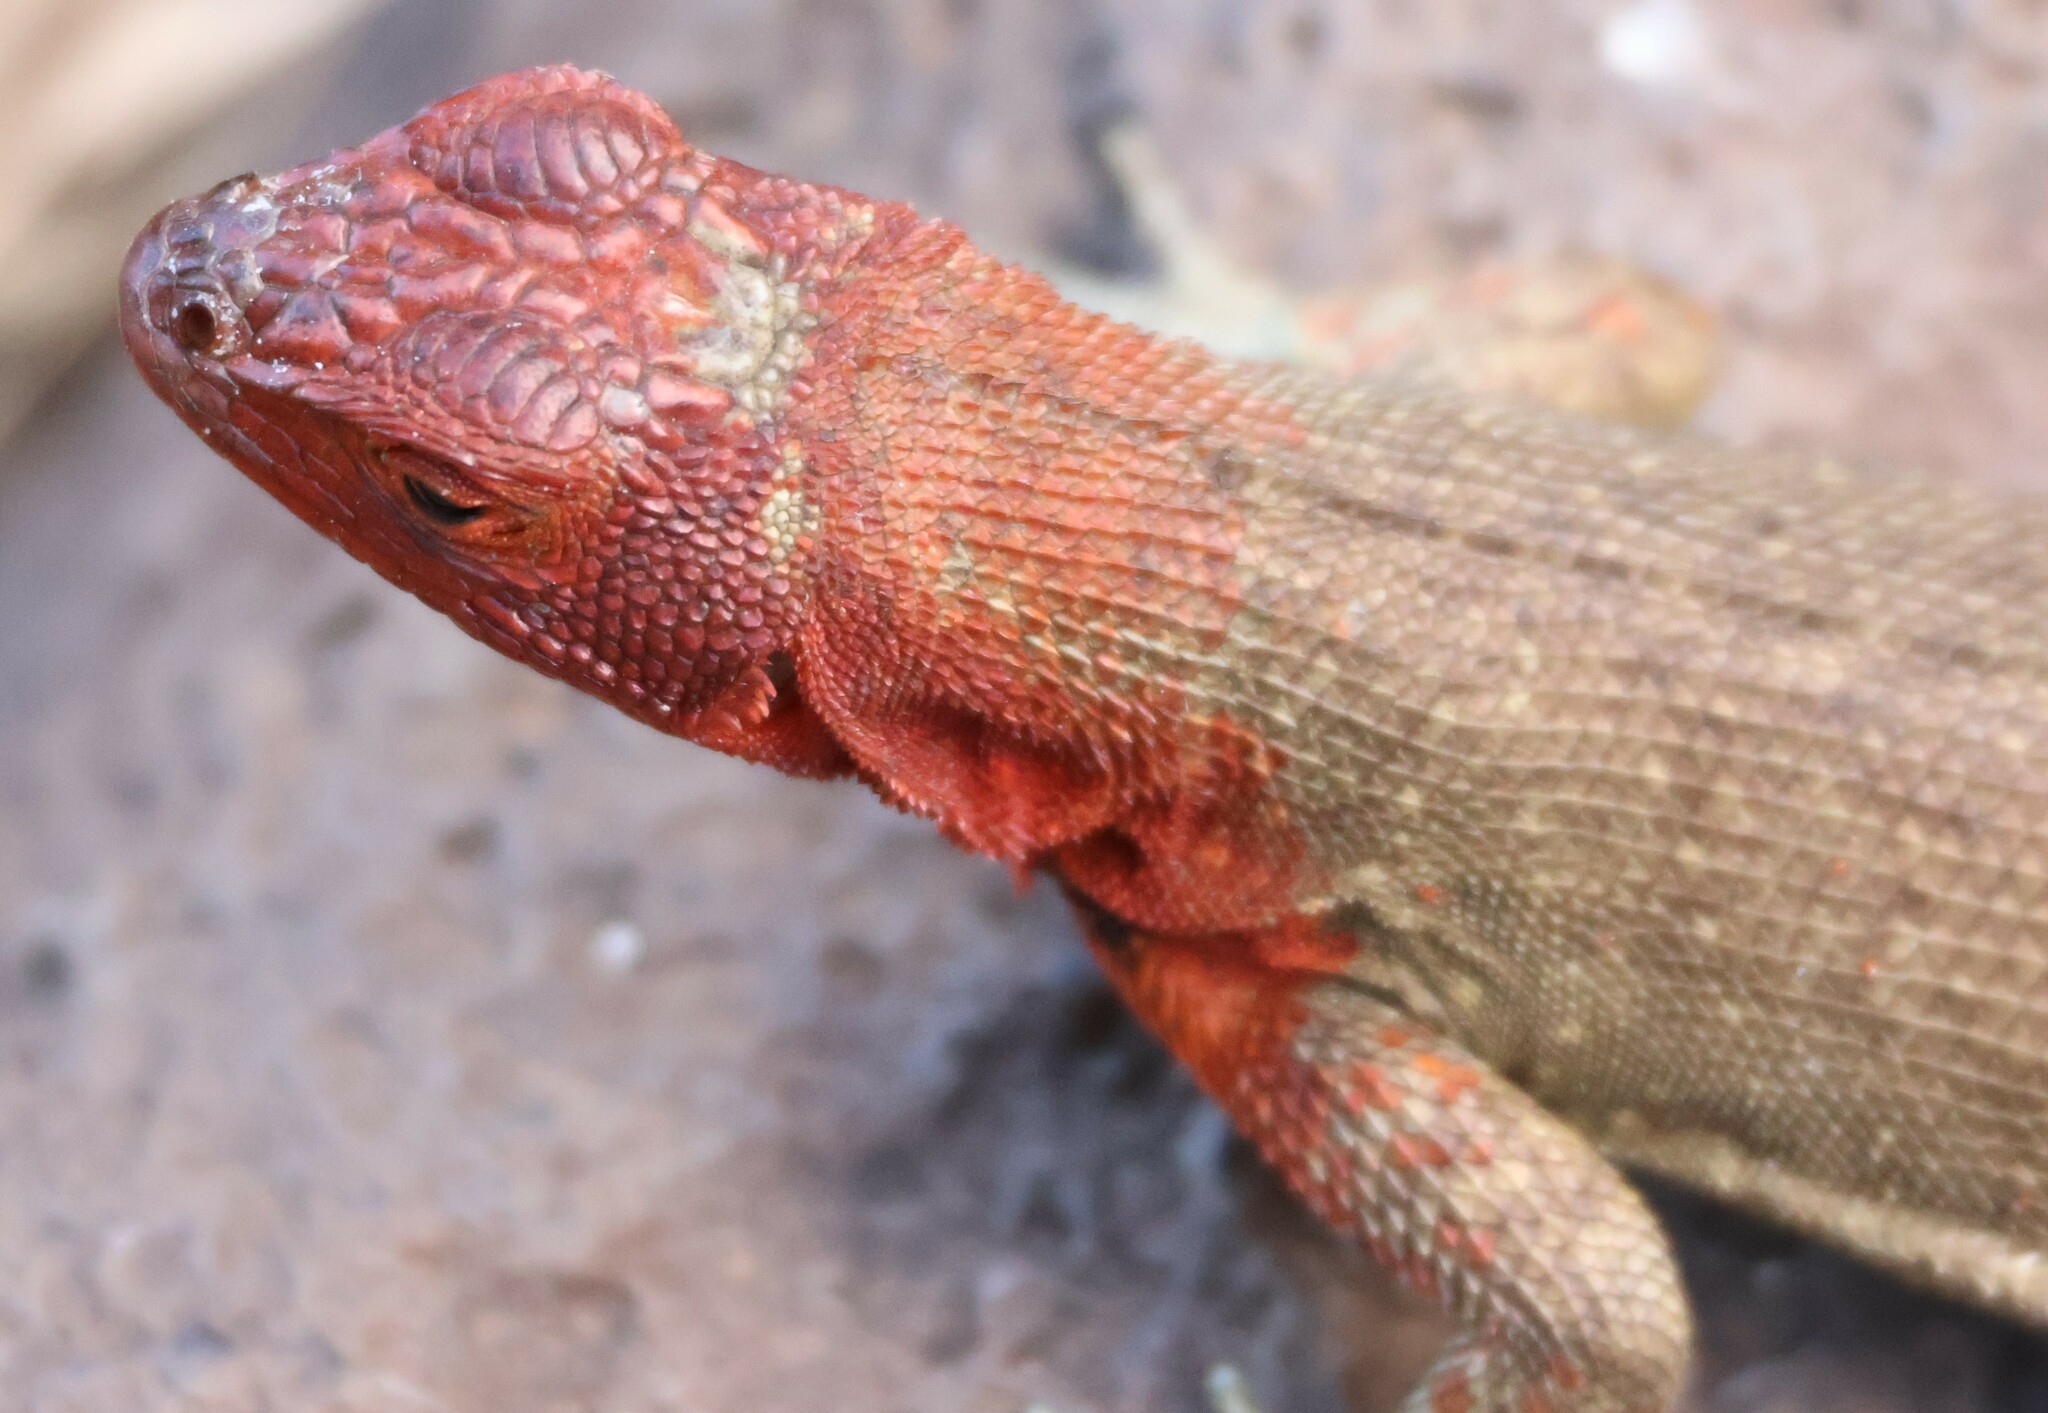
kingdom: Animalia
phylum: Chordata
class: Squamata
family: Tropiduridae
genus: Microlophus
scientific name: Microlophus delanonis
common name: Hood lava lizard
